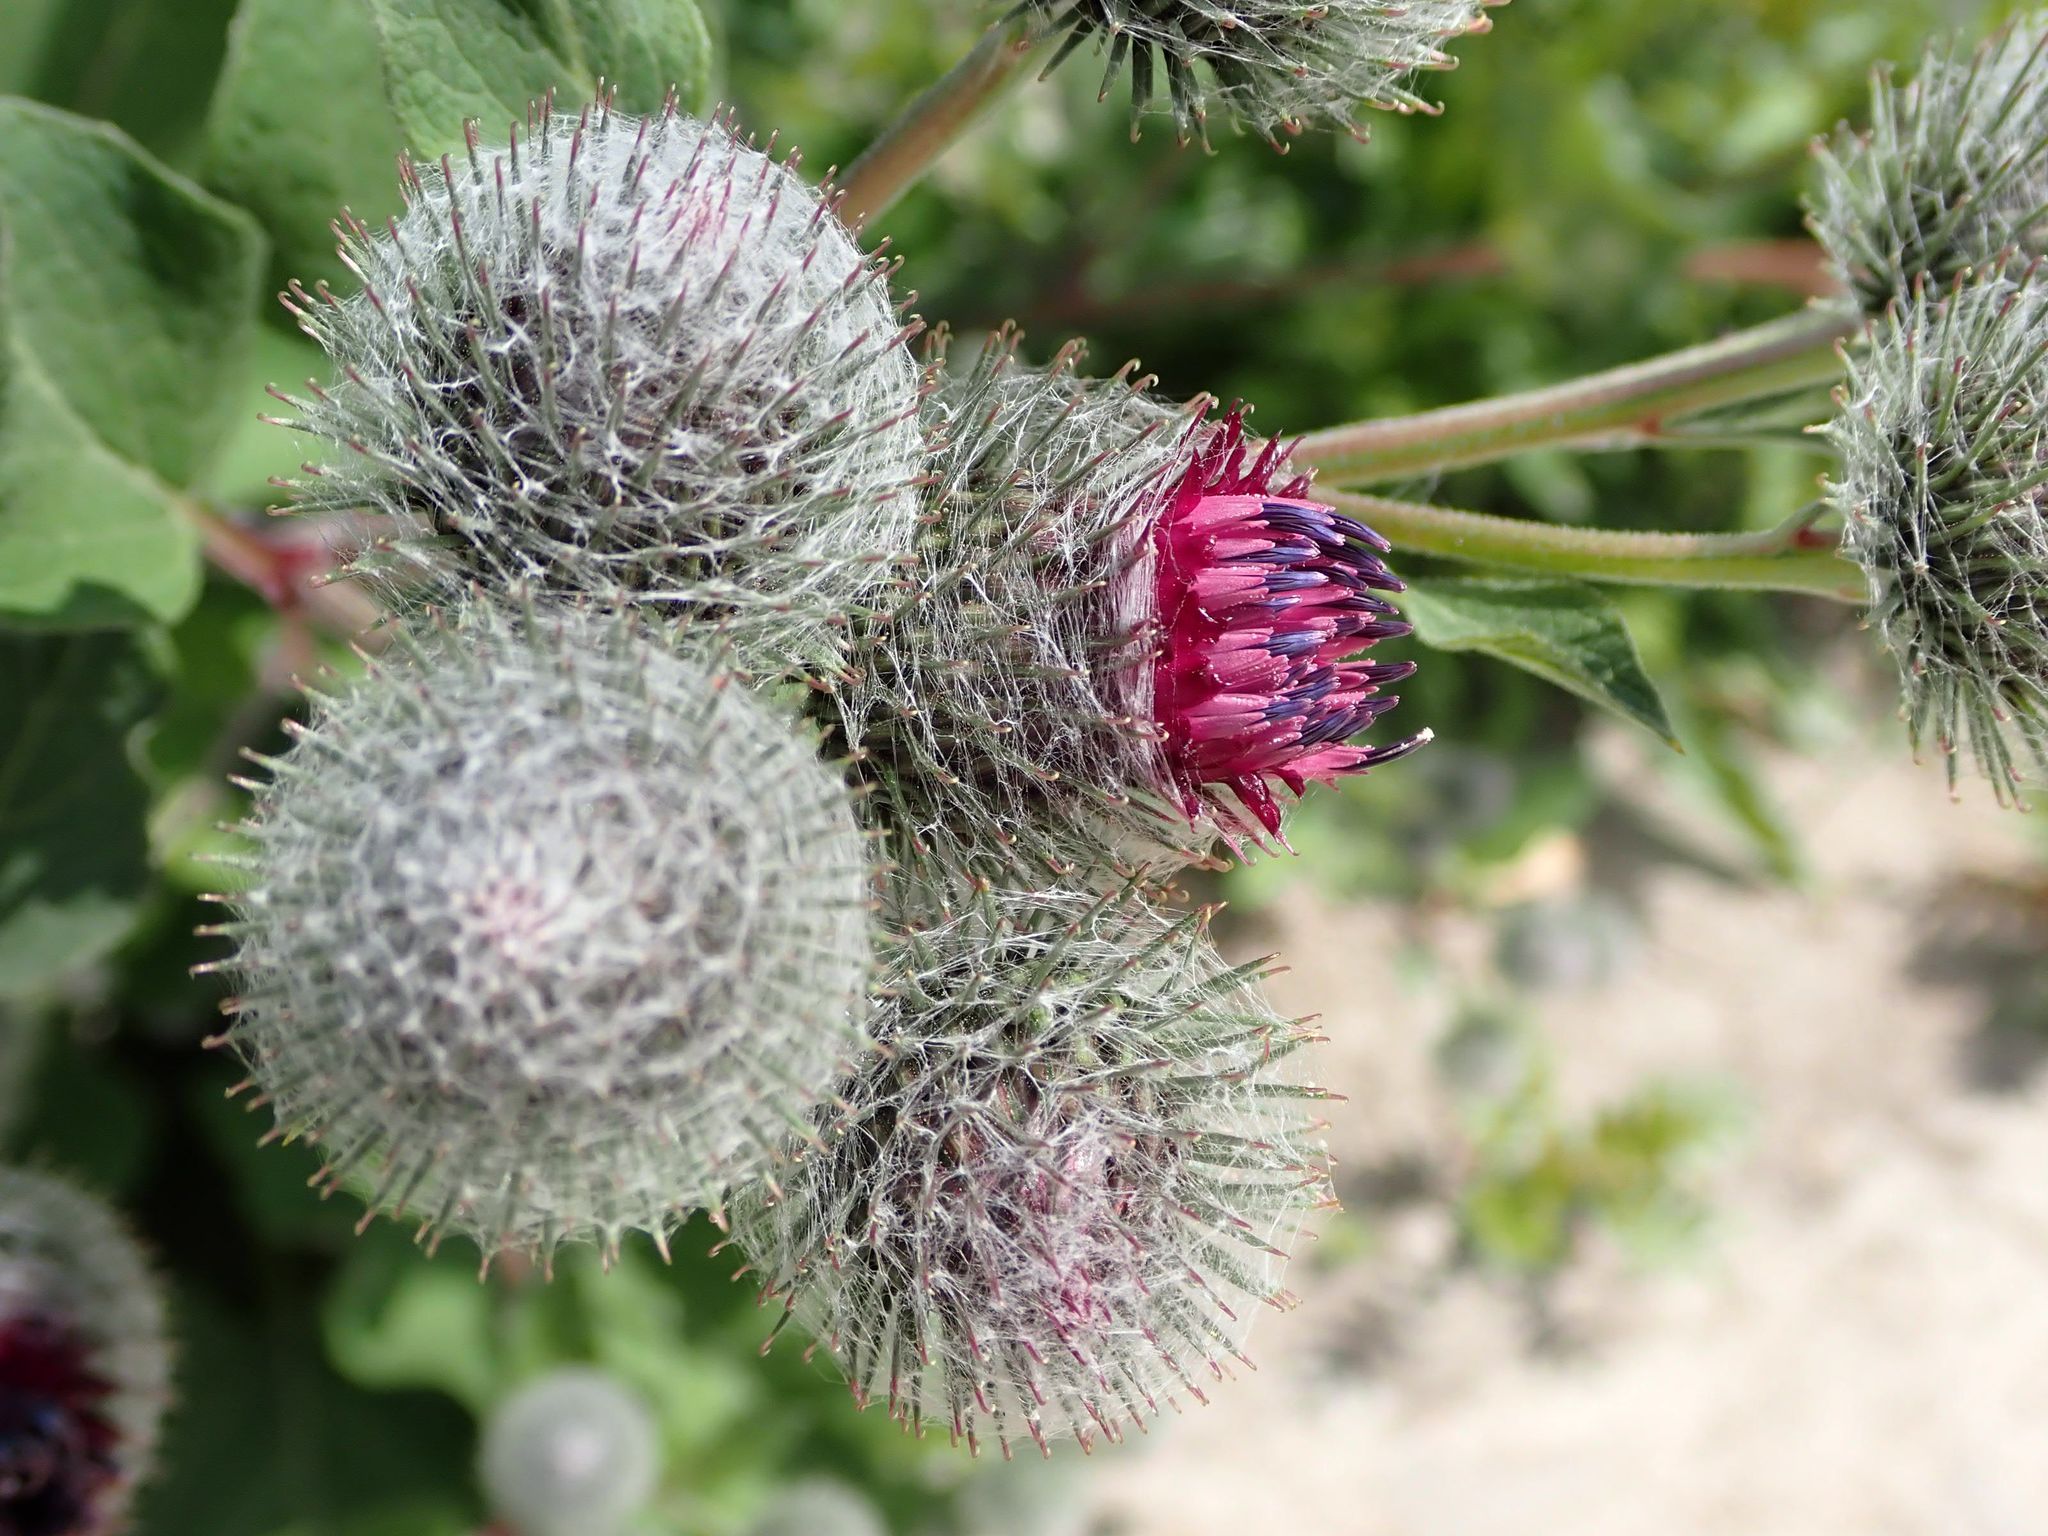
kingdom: Plantae
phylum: Tracheophyta
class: Magnoliopsida
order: Asterales
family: Asteraceae
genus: Arctium
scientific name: Arctium tomentosum
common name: Woolly burdock
